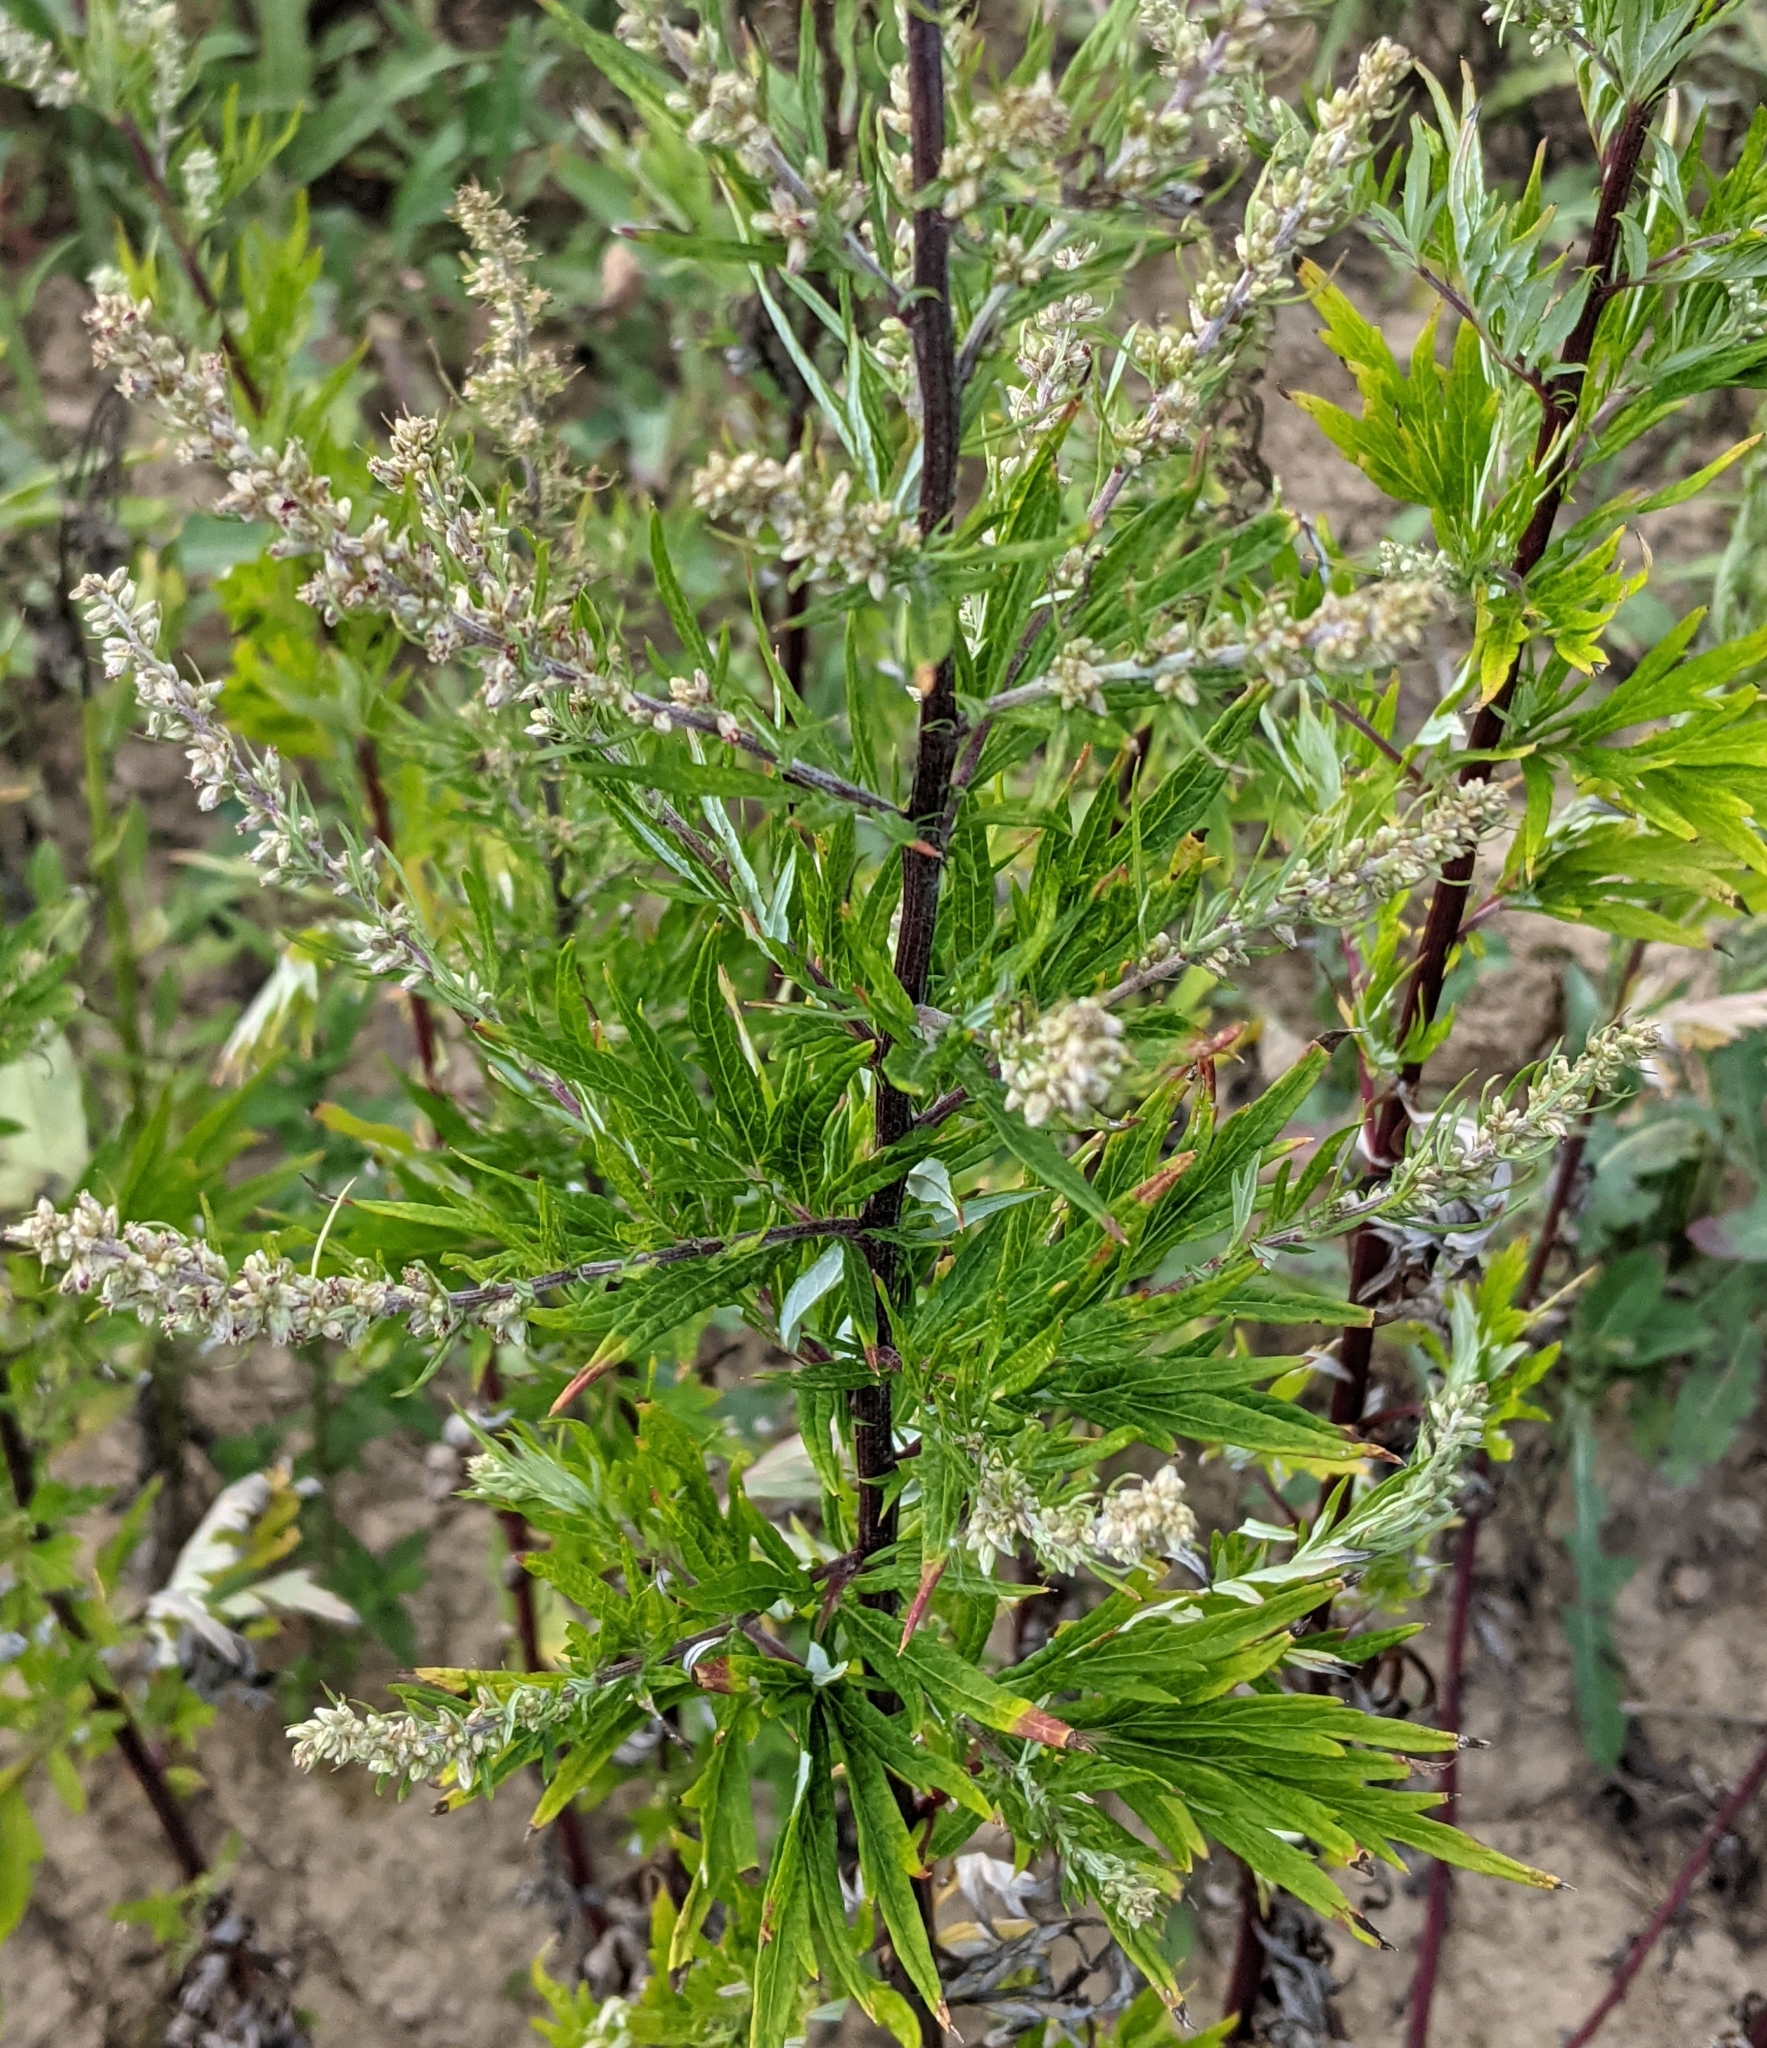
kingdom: Plantae
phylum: Tracheophyta
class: Magnoliopsida
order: Asterales
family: Asteraceae
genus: Artemisia
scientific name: Artemisia vulgaris
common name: Mugwort
